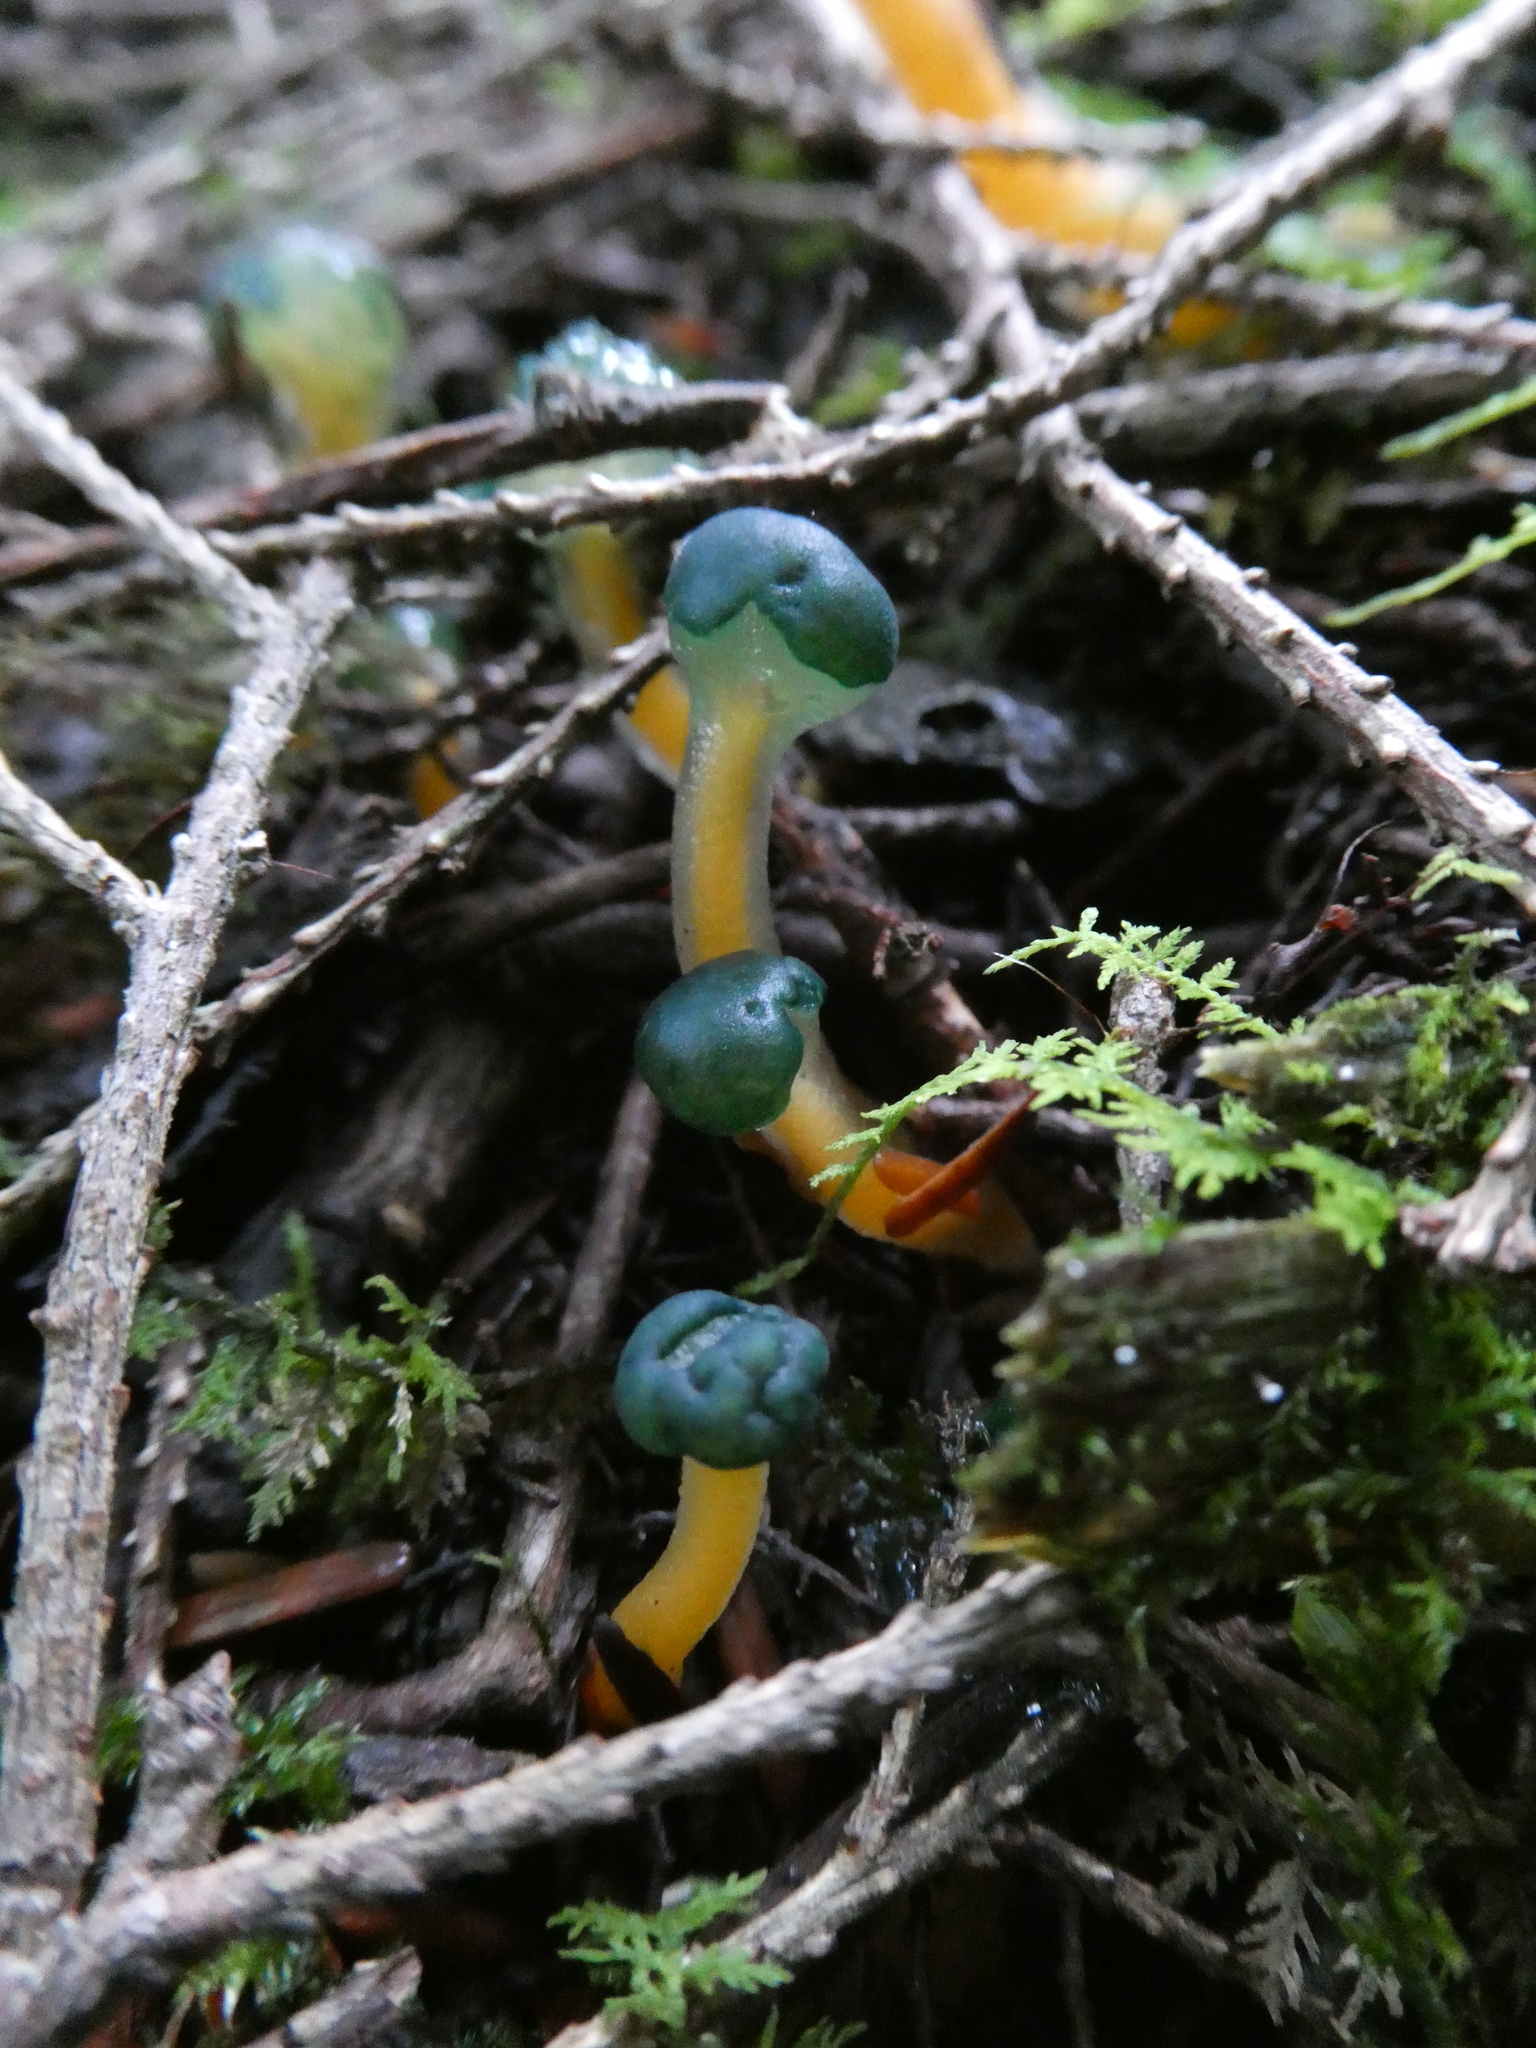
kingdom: Fungi
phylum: Ascomycota
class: Leotiomycetes
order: Leotiales
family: Leotiaceae
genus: Leotia
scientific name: Leotia lubrica
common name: Jellybaby
